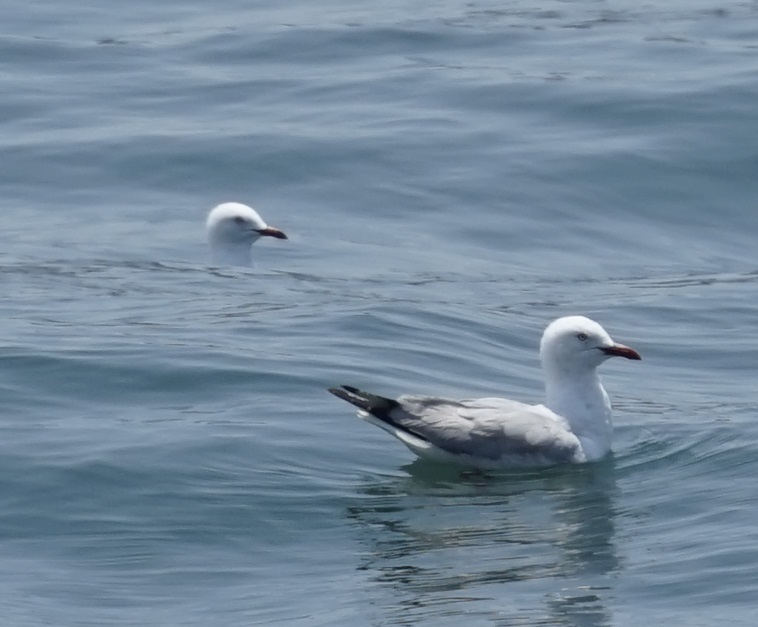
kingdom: Animalia
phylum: Chordata
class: Aves
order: Charadriiformes
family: Laridae
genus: Chroicocephalus
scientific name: Chroicocephalus novaehollandiae
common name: Silver gull
